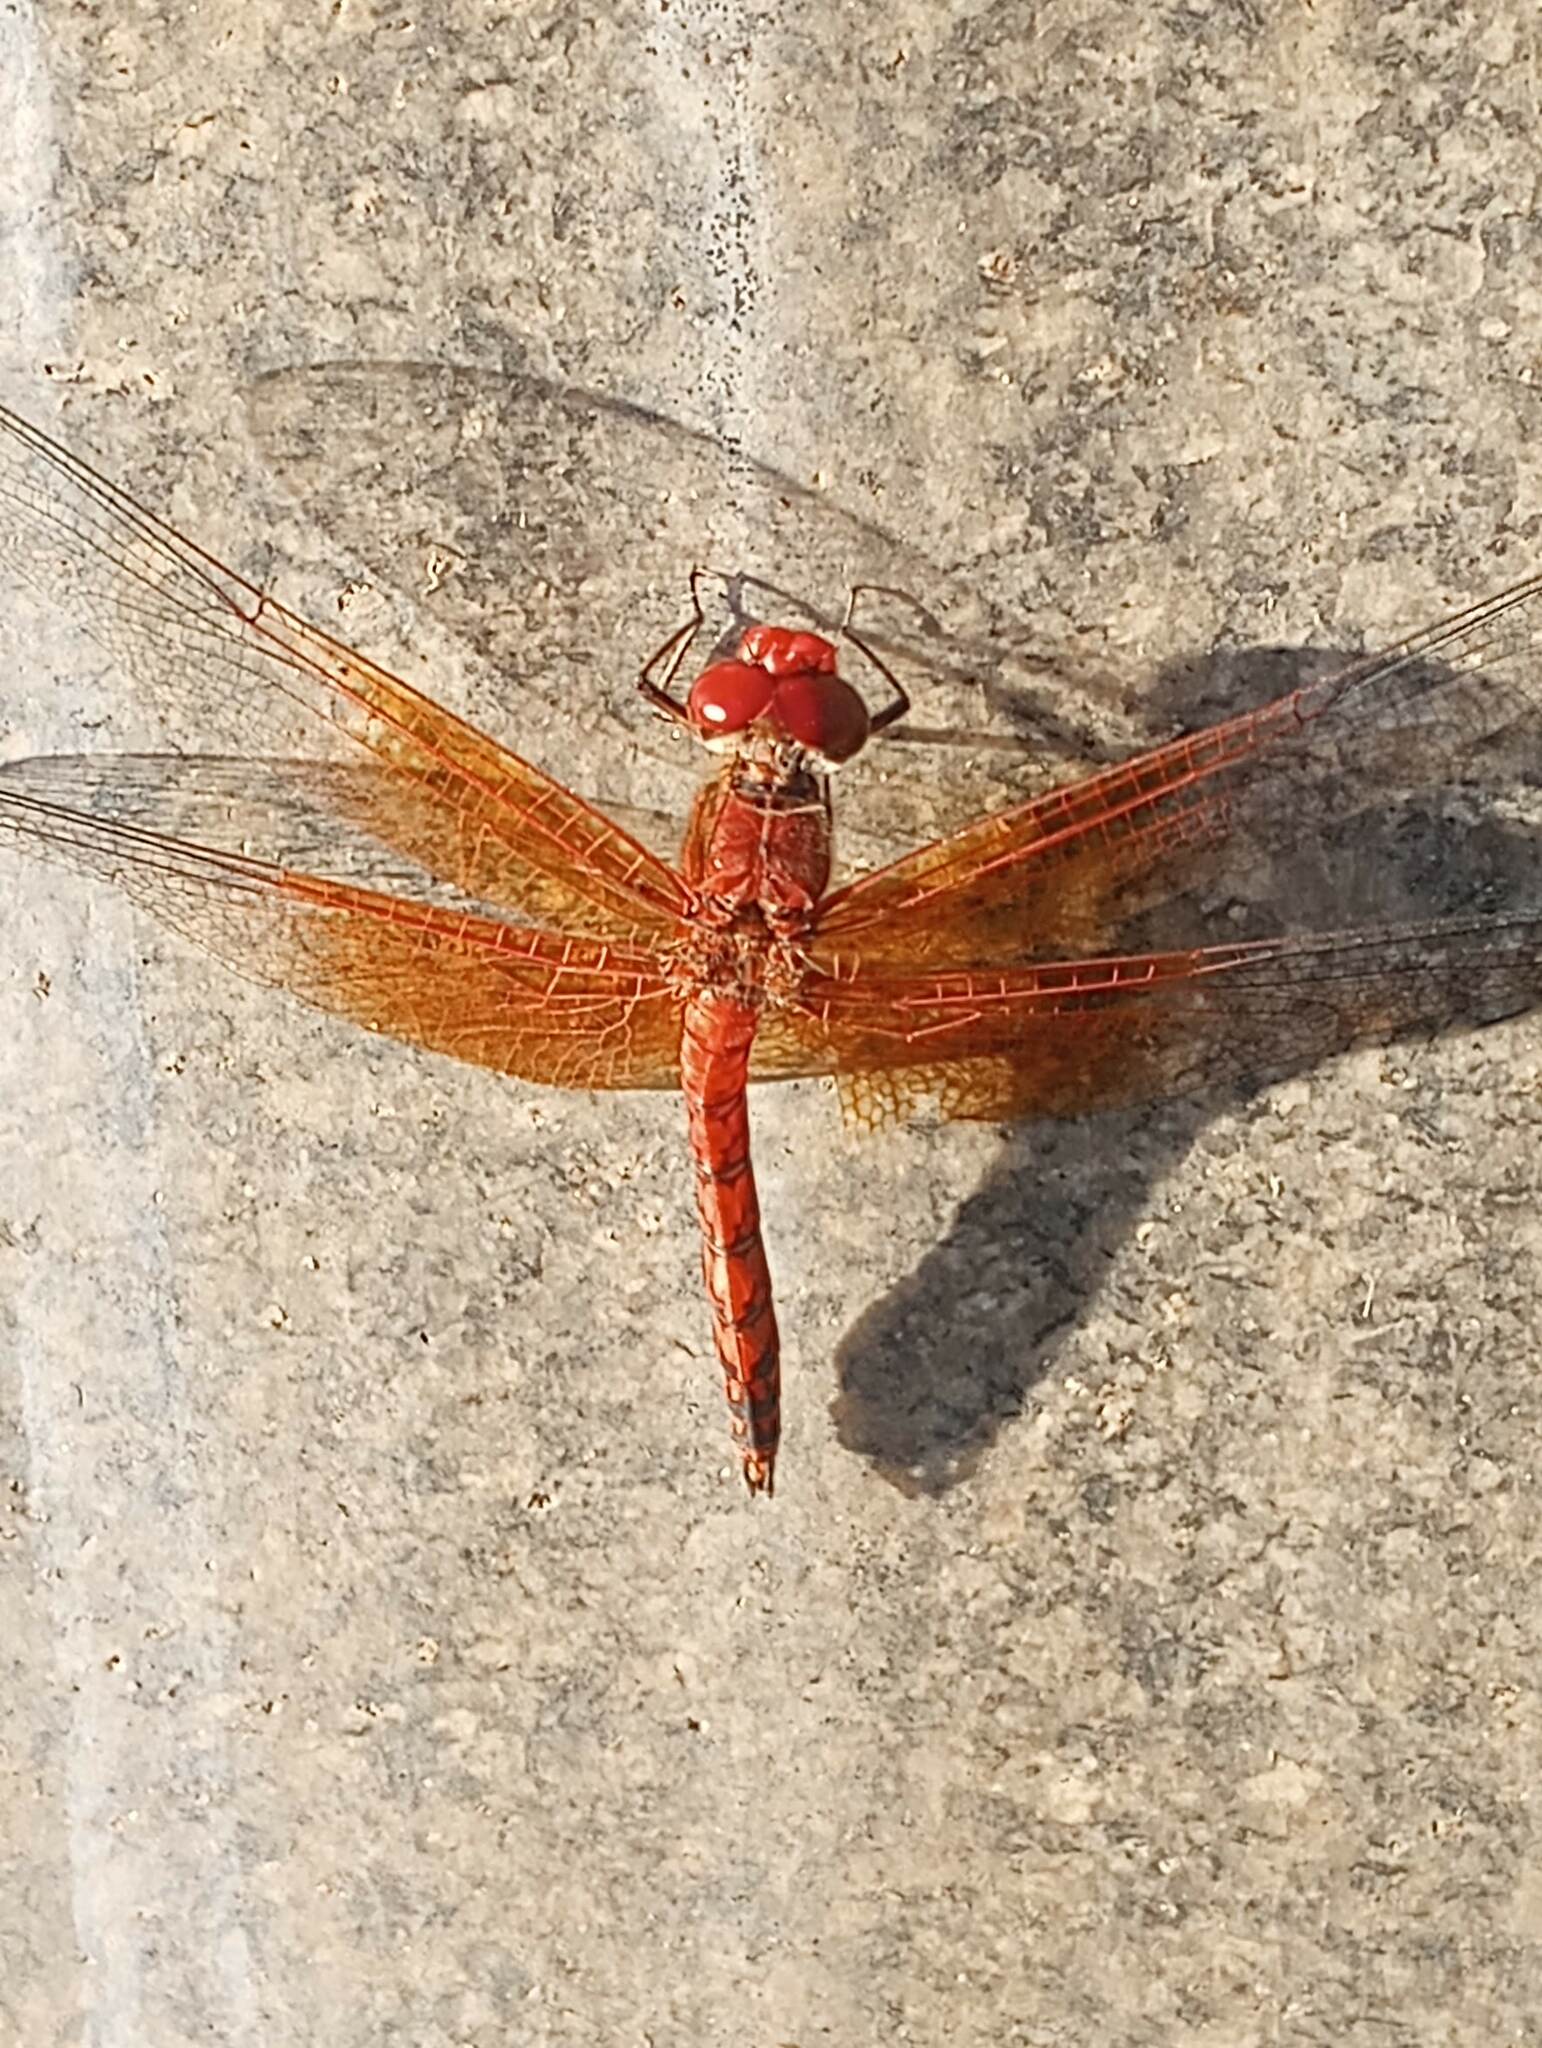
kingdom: Animalia
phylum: Arthropoda
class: Insecta
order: Odonata
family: Libellulidae
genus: Paltothemis
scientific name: Paltothemis lineatipes
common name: Red rock skimmer
